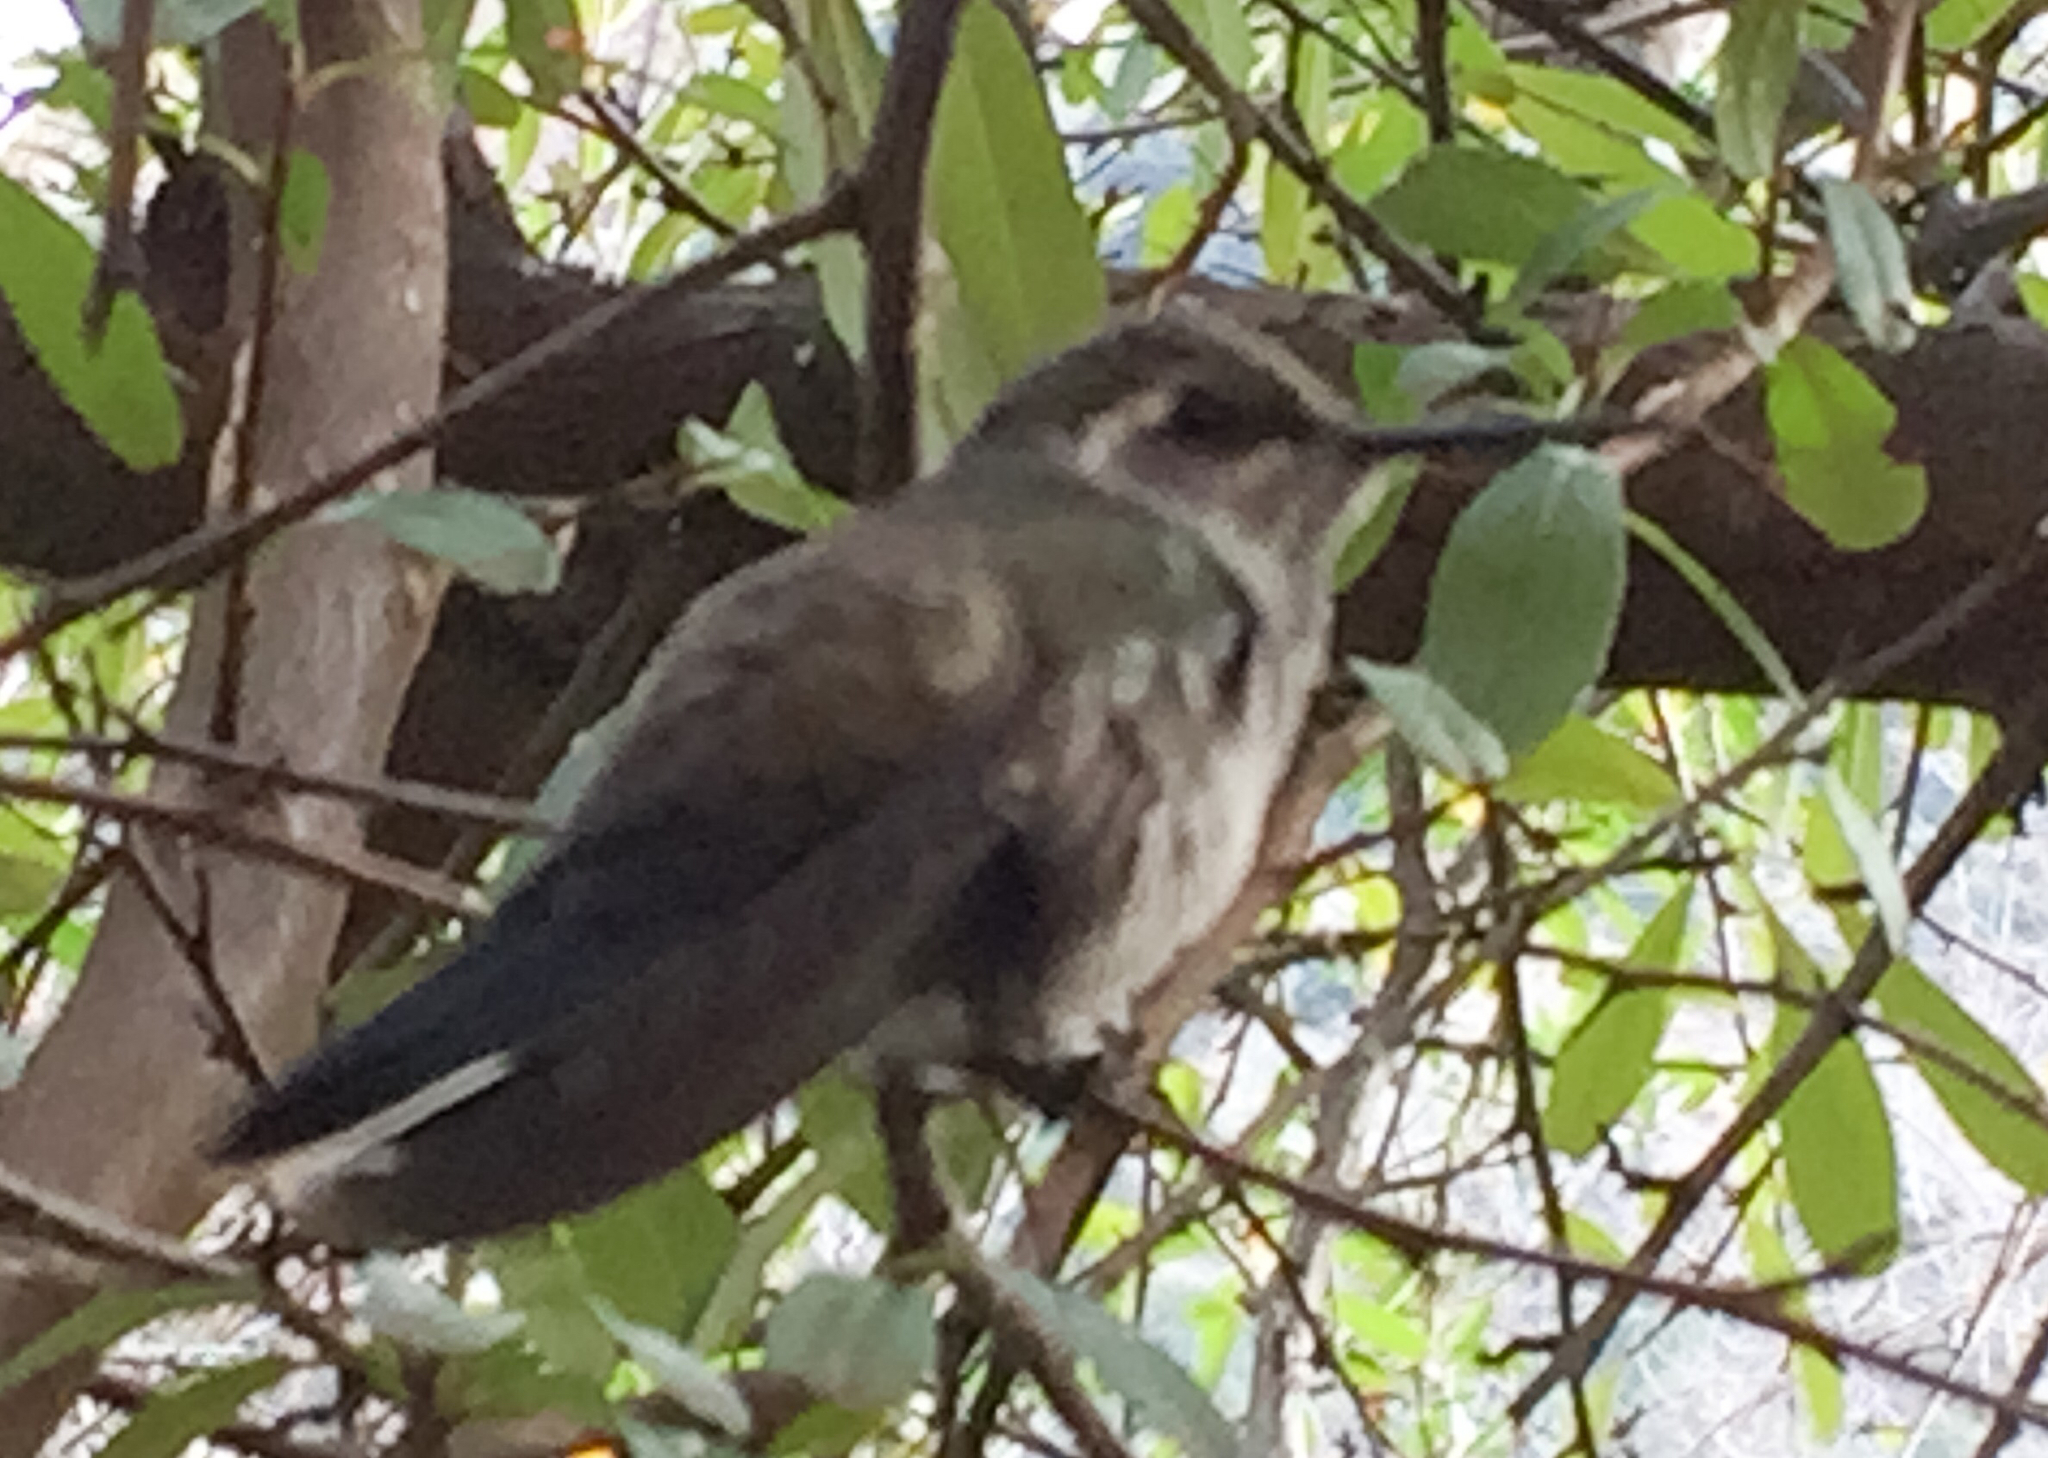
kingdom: Animalia
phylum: Chordata
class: Aves
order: Apodiformes
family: Trochilidae
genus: Lampornis
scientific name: Lampornis clemenciae
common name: Blue-throated mountaingem
